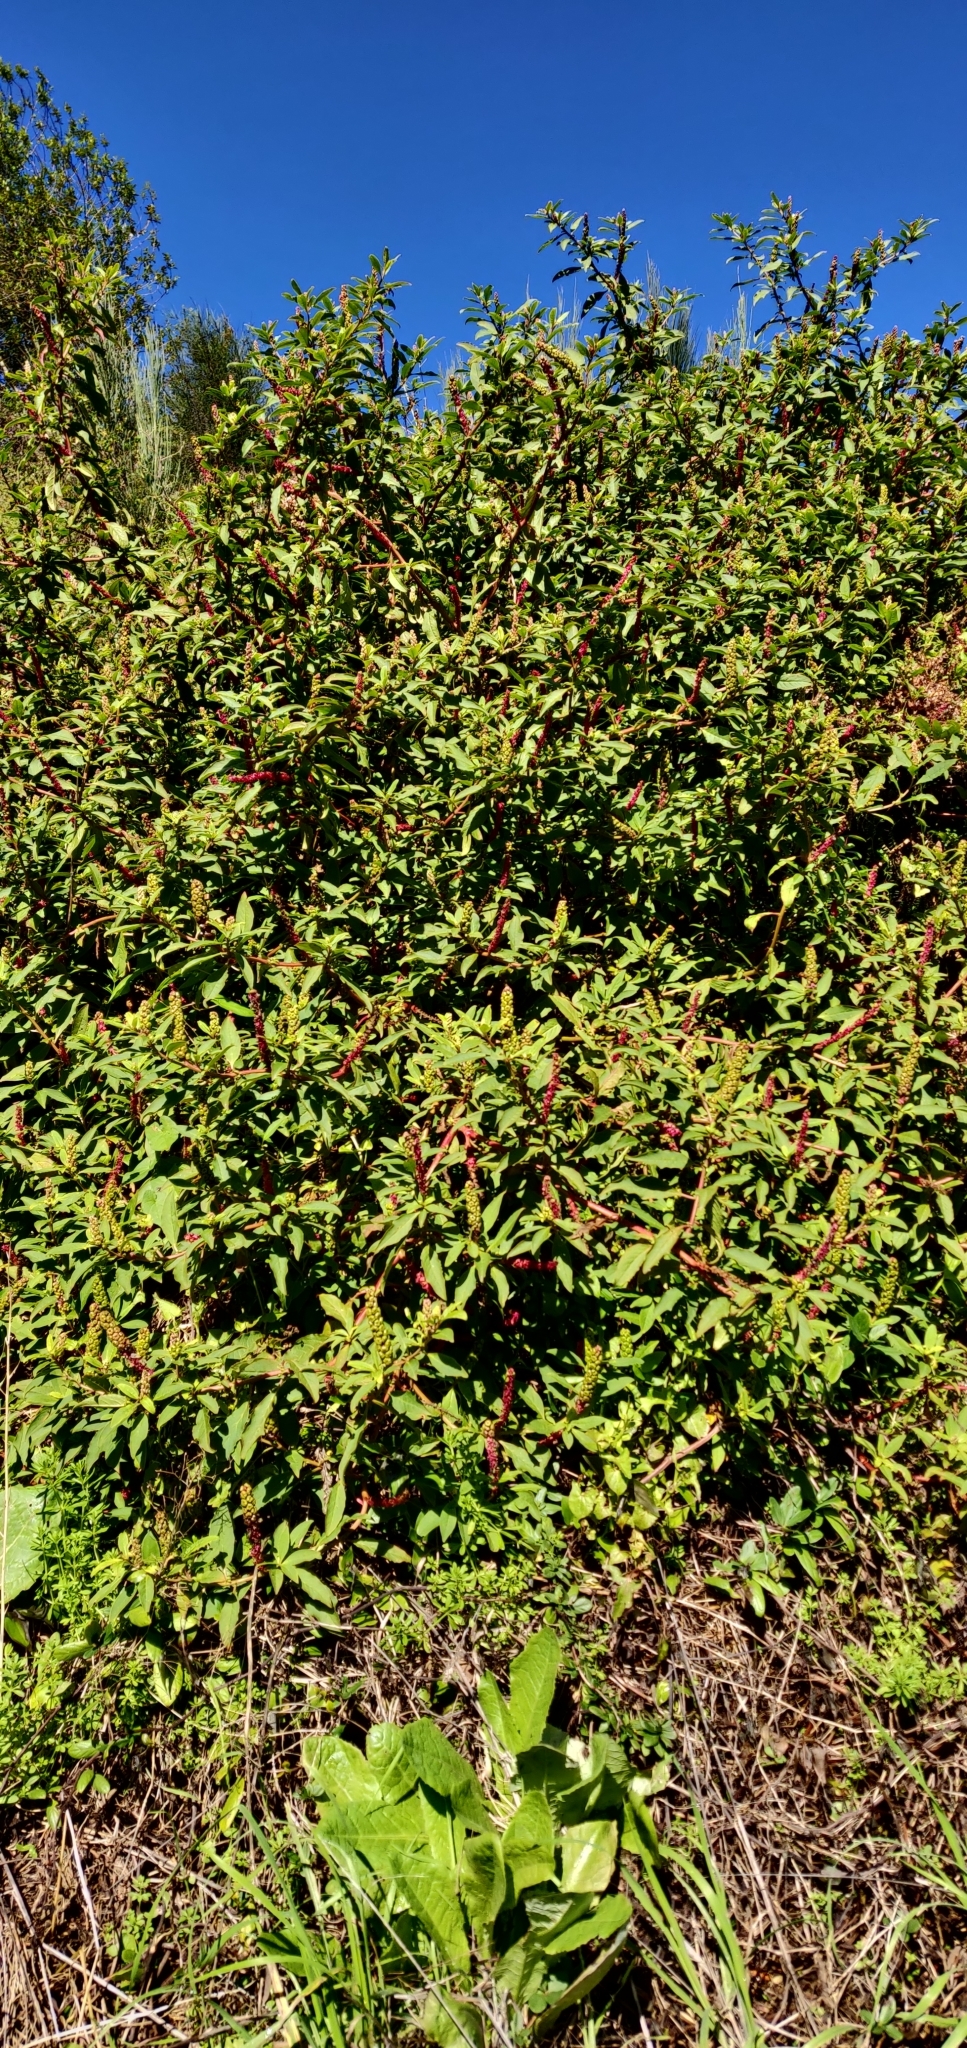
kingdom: Plantae
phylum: Tracheophyta
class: Magnoliopsida
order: Caryophyllales
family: Phytolaccaceae
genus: Phytolacca
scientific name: Phytolacca icosandra
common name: Button pokeweed
